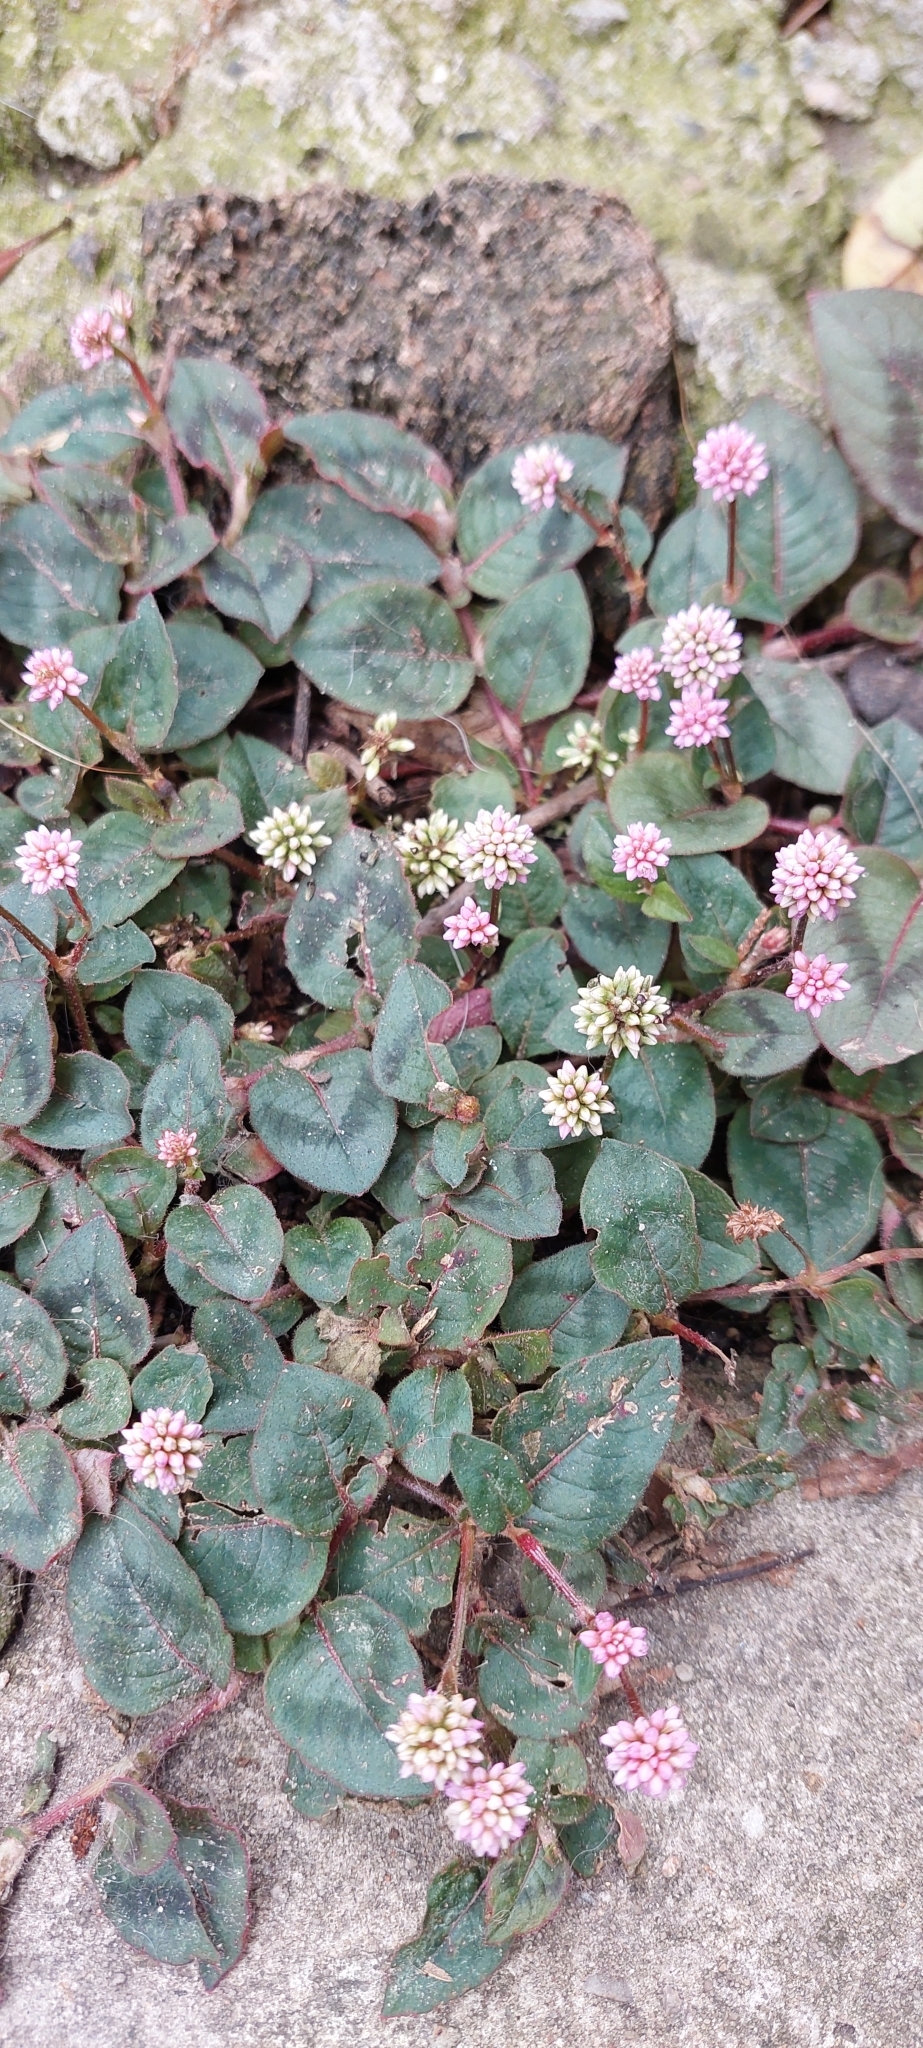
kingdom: Plantae
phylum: Tracheophyta
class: Magnoliopsida
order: Caryophyllales
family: Polygonaceae
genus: Persicaria
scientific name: Persicaria capitata
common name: Pinkhead smartweed
